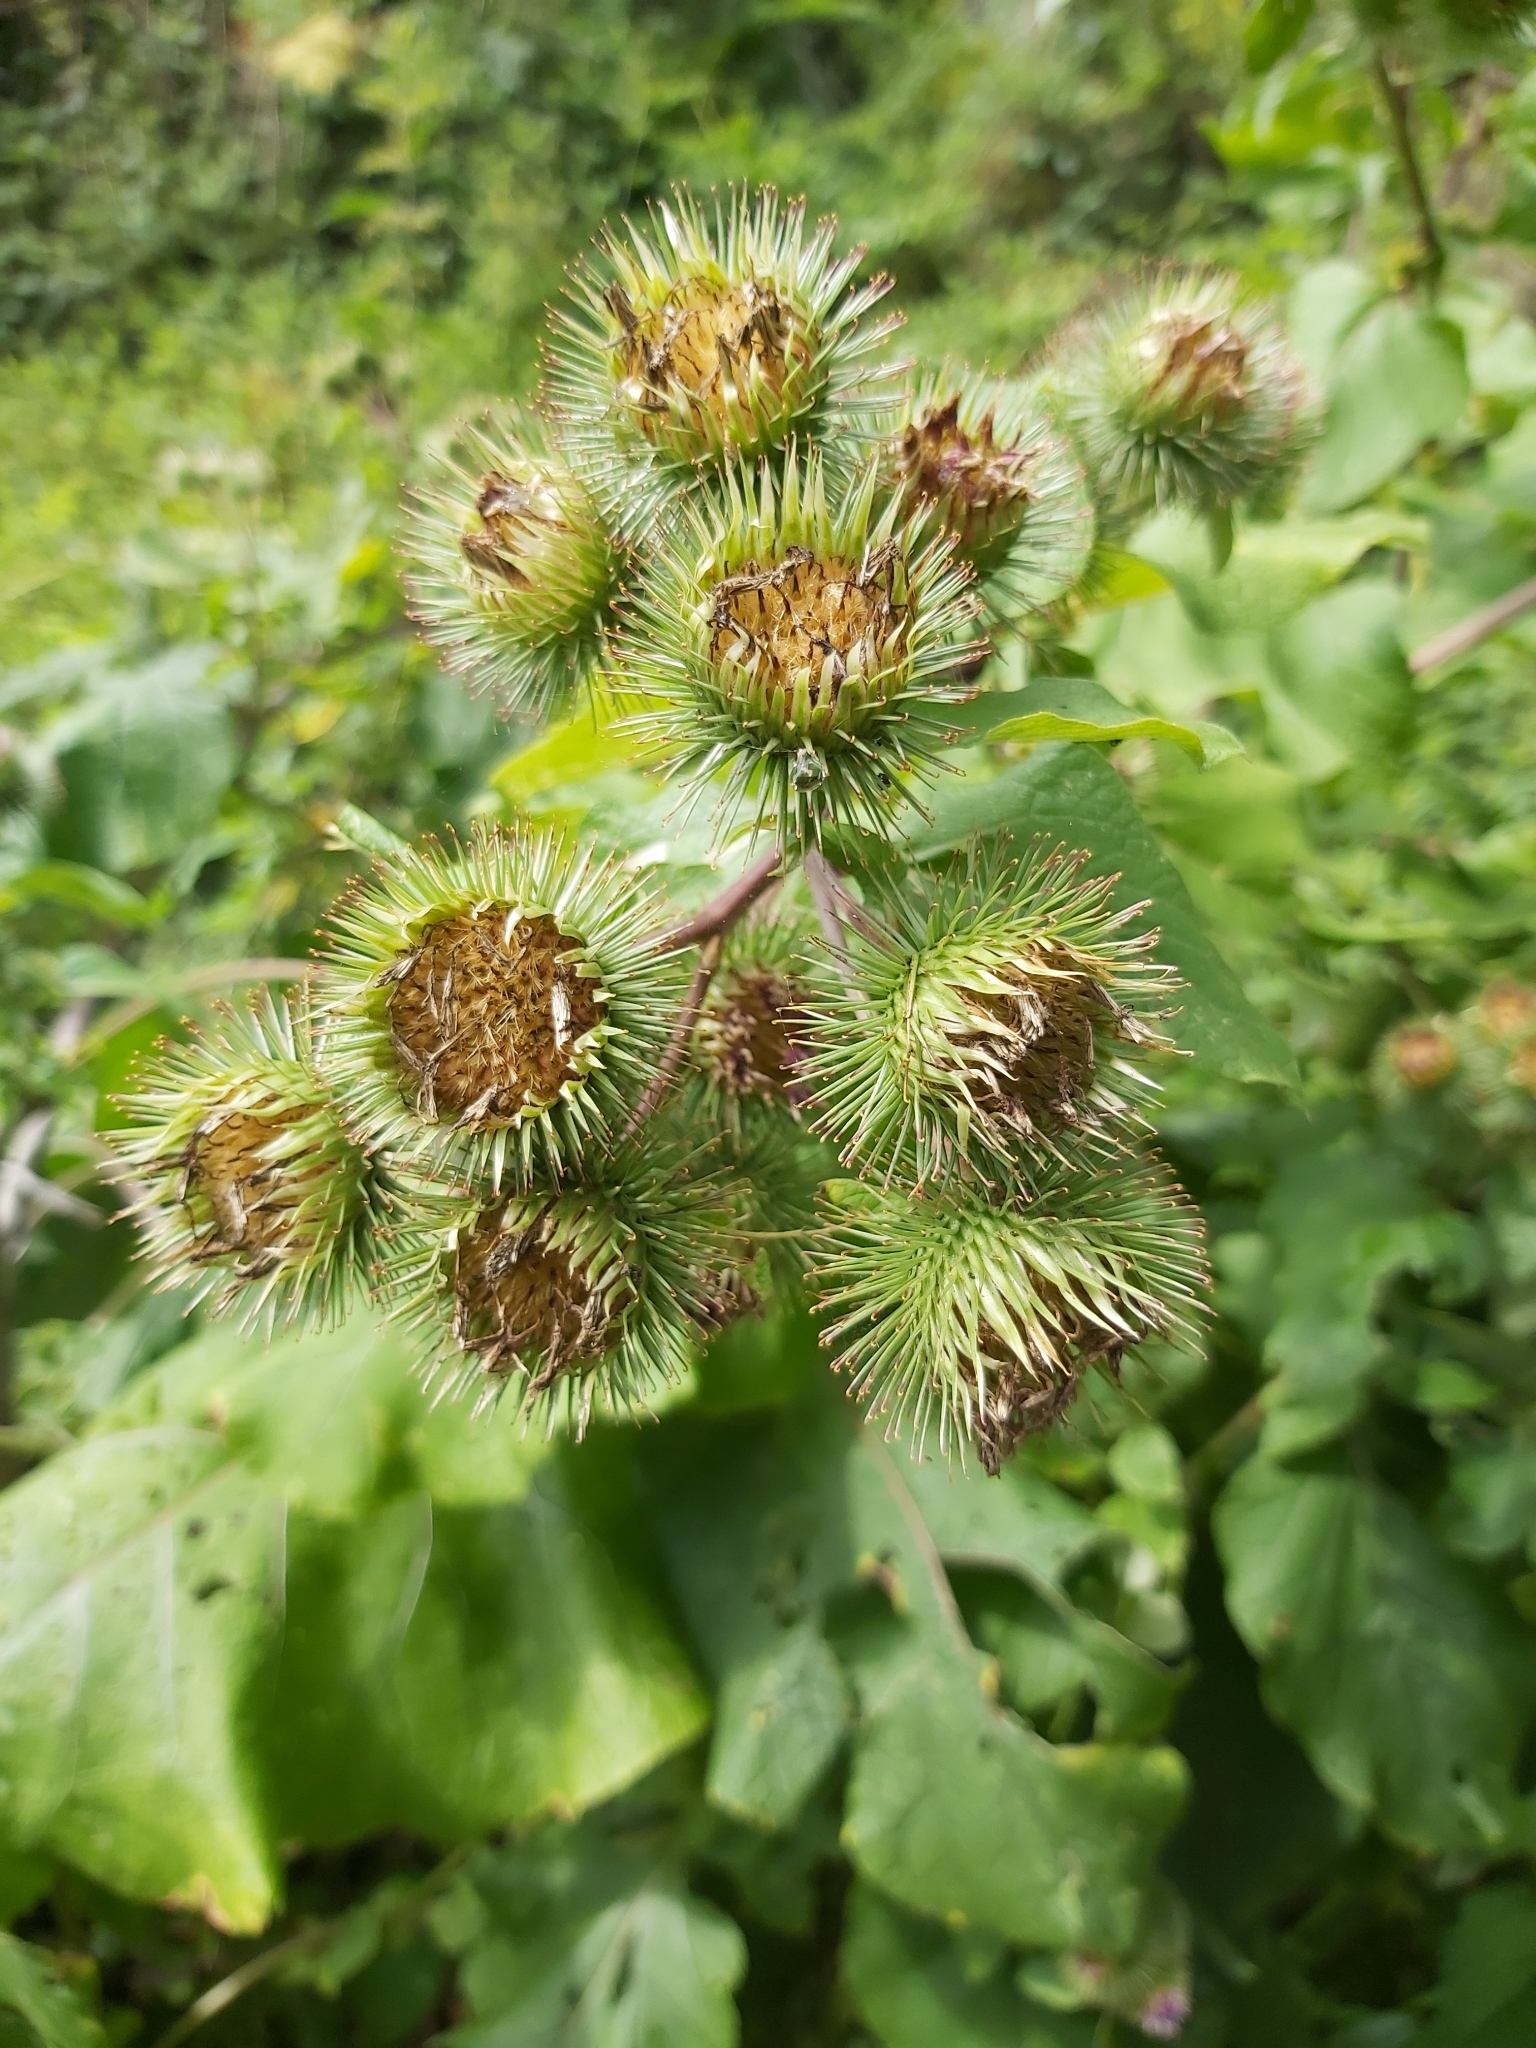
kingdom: Plantae
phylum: Tracheophyta
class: Magnoliopsida
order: Asterales
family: Asteraceae
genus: Arctium
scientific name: Arctium lappa
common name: Greater burdock
